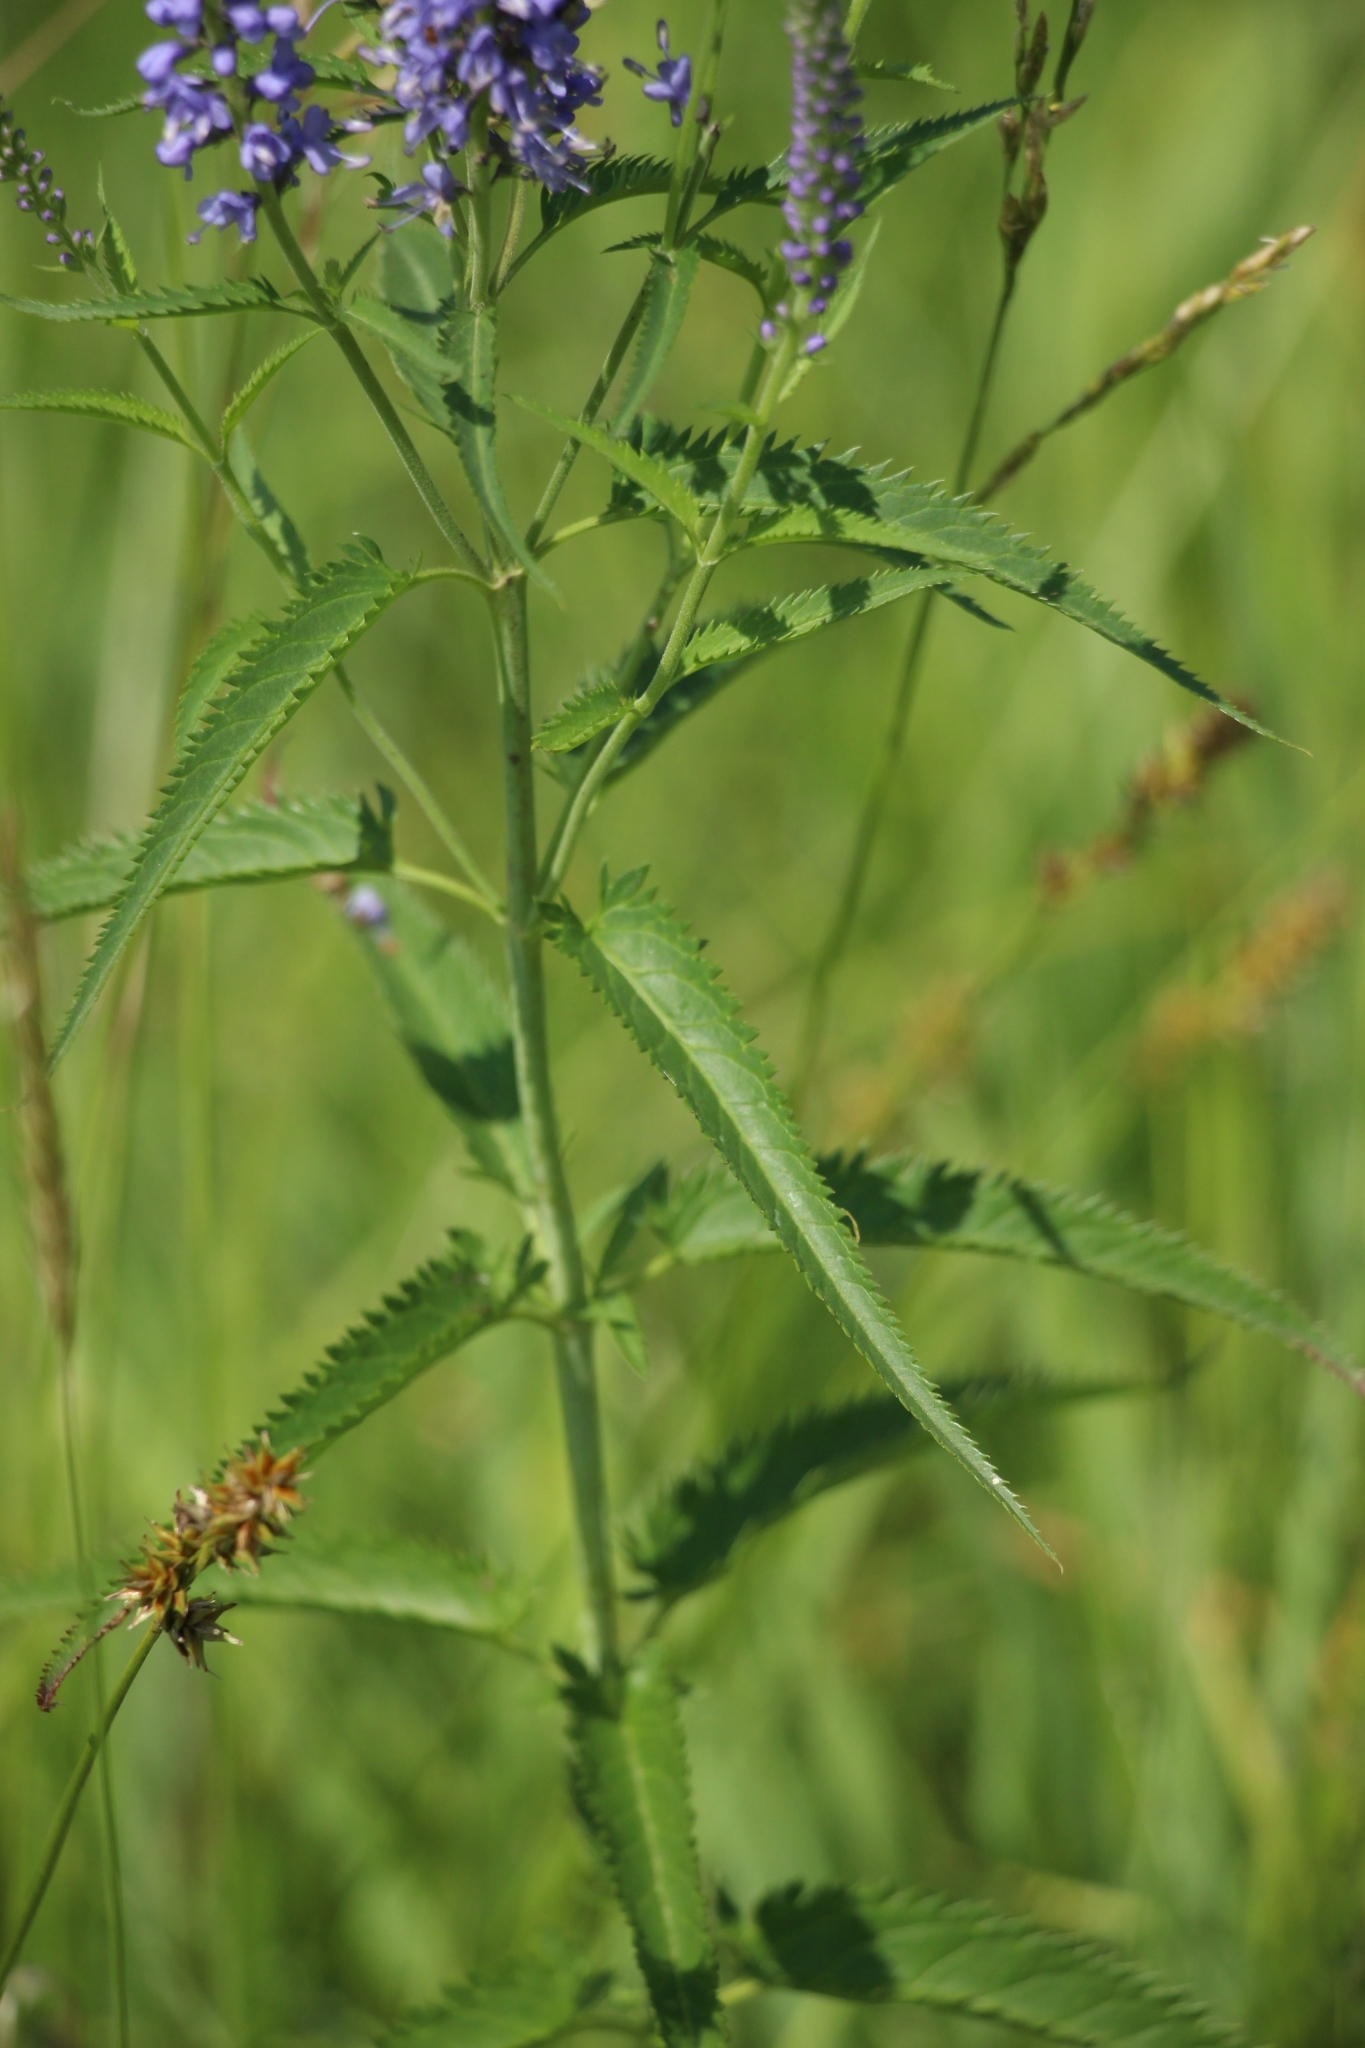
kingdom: Plantae
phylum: Tracheophyta
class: Magnoliopsida
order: Lamiales
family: Plantaginaceae
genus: Veronica
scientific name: Veronica longifolia
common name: Garden speedwell
